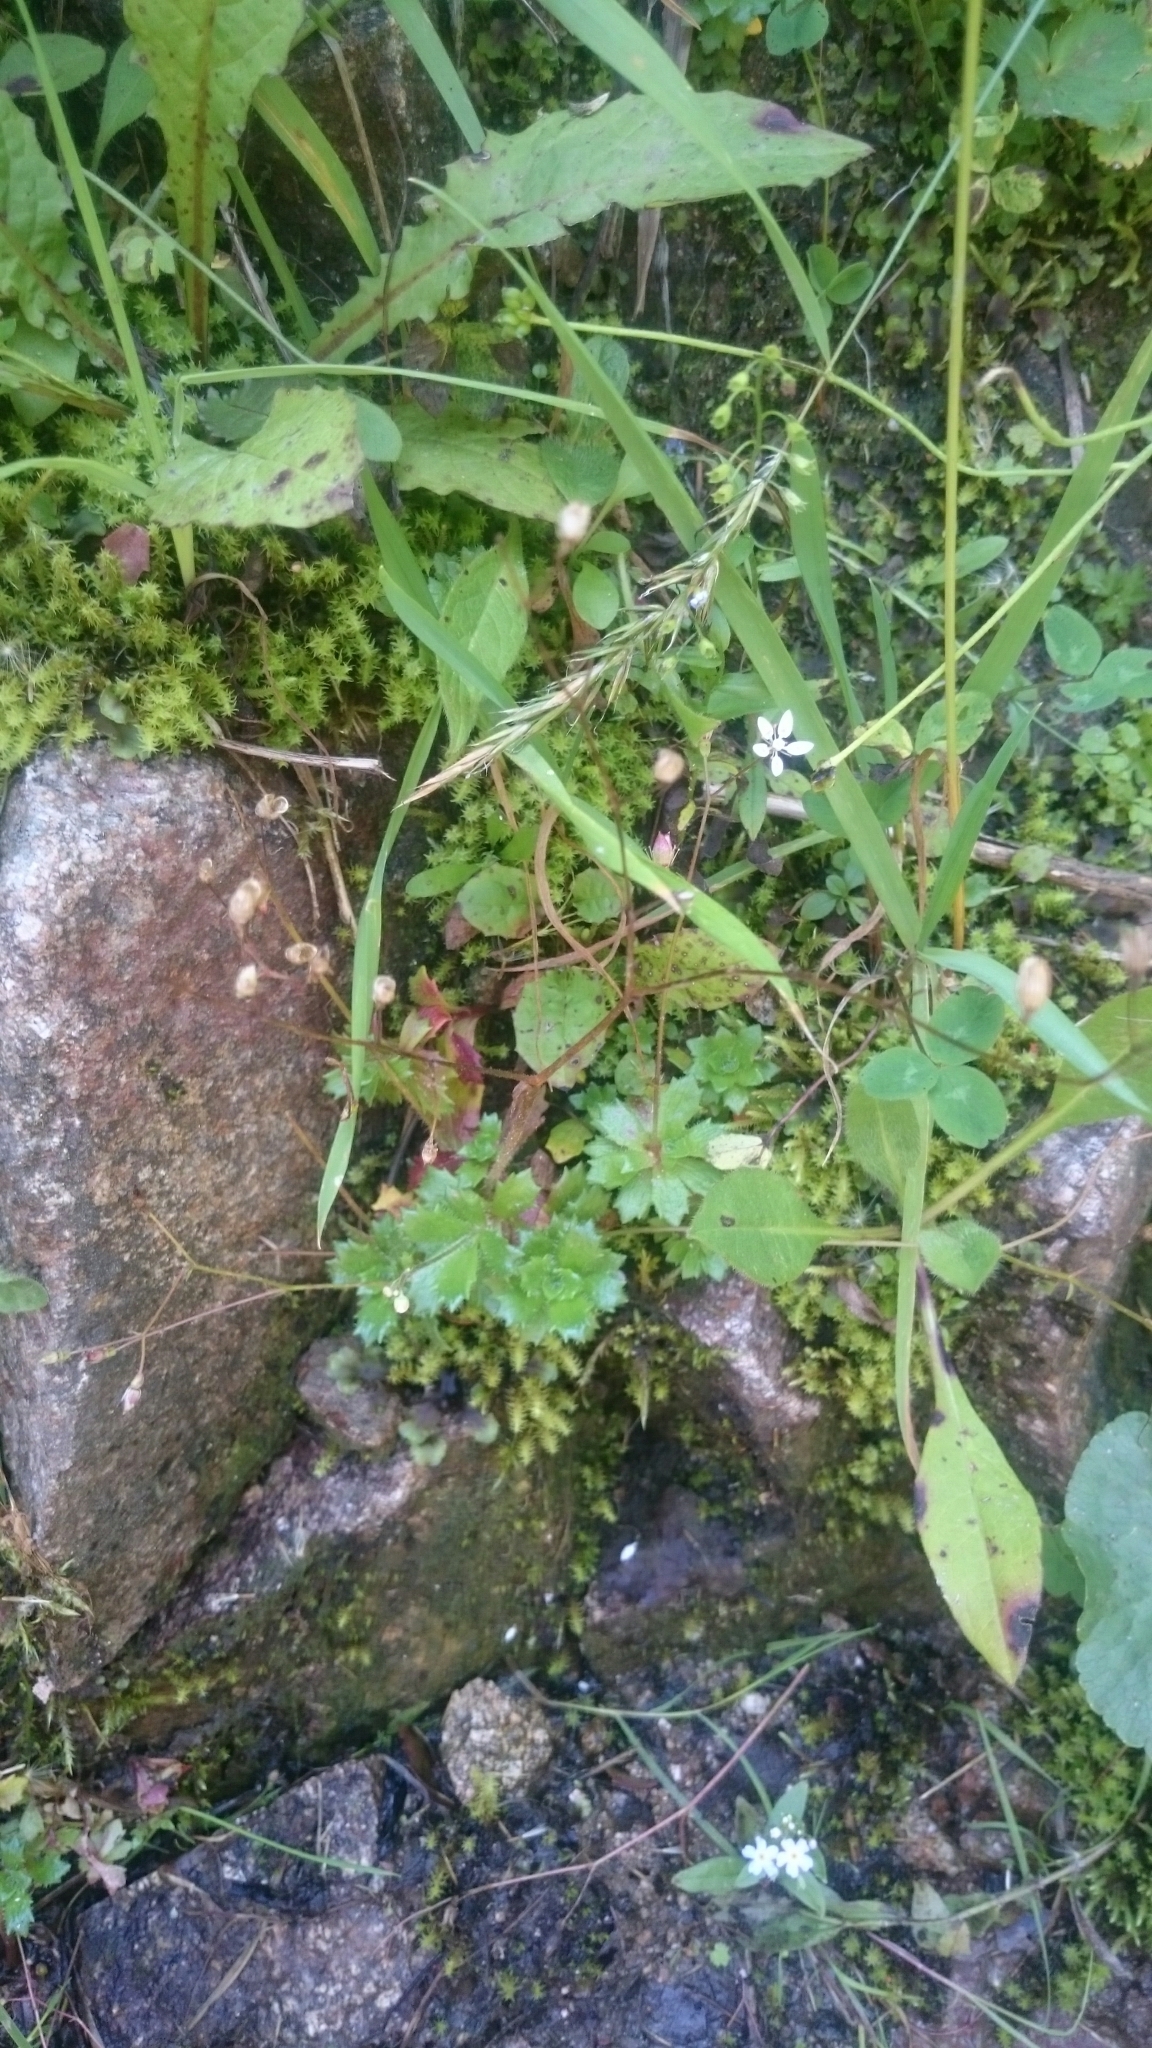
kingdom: Plantae
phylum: Tracheophyta
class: Magnoliopsida
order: Saxifragales
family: Saxifragaceae
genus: Micranthes
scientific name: Micranthes stellaris
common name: Starry saxifrage
